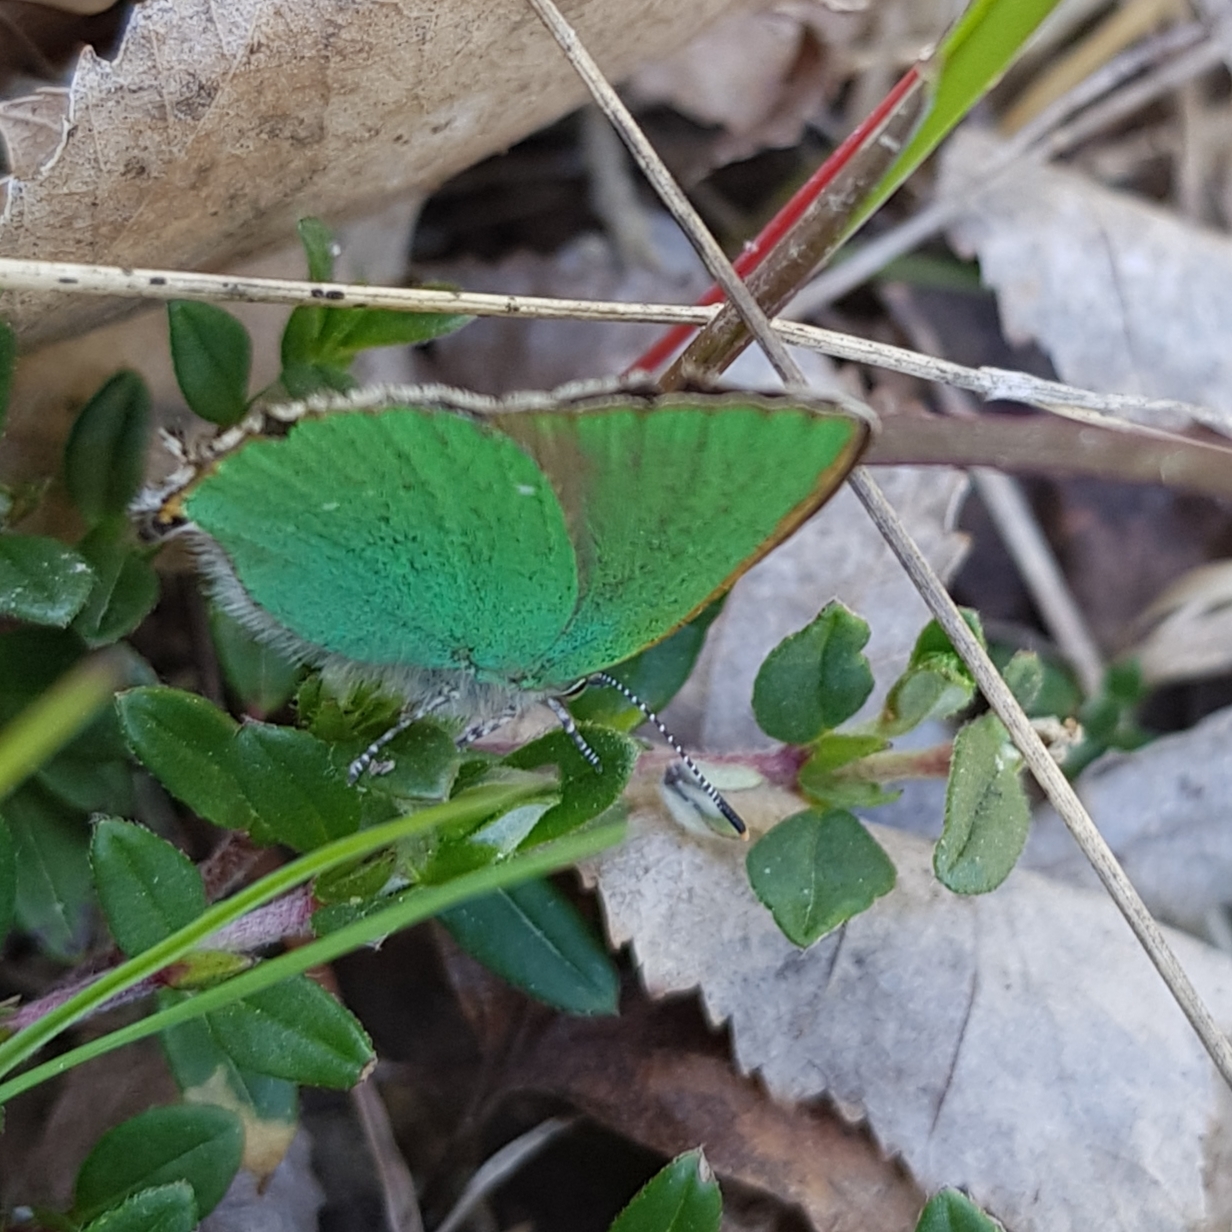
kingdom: Animalia
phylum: Arthropoda
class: Insecta
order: Lepidoptera
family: Lycaenidae
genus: Callophrys
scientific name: Callophrys rubi
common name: Green hairstreak
